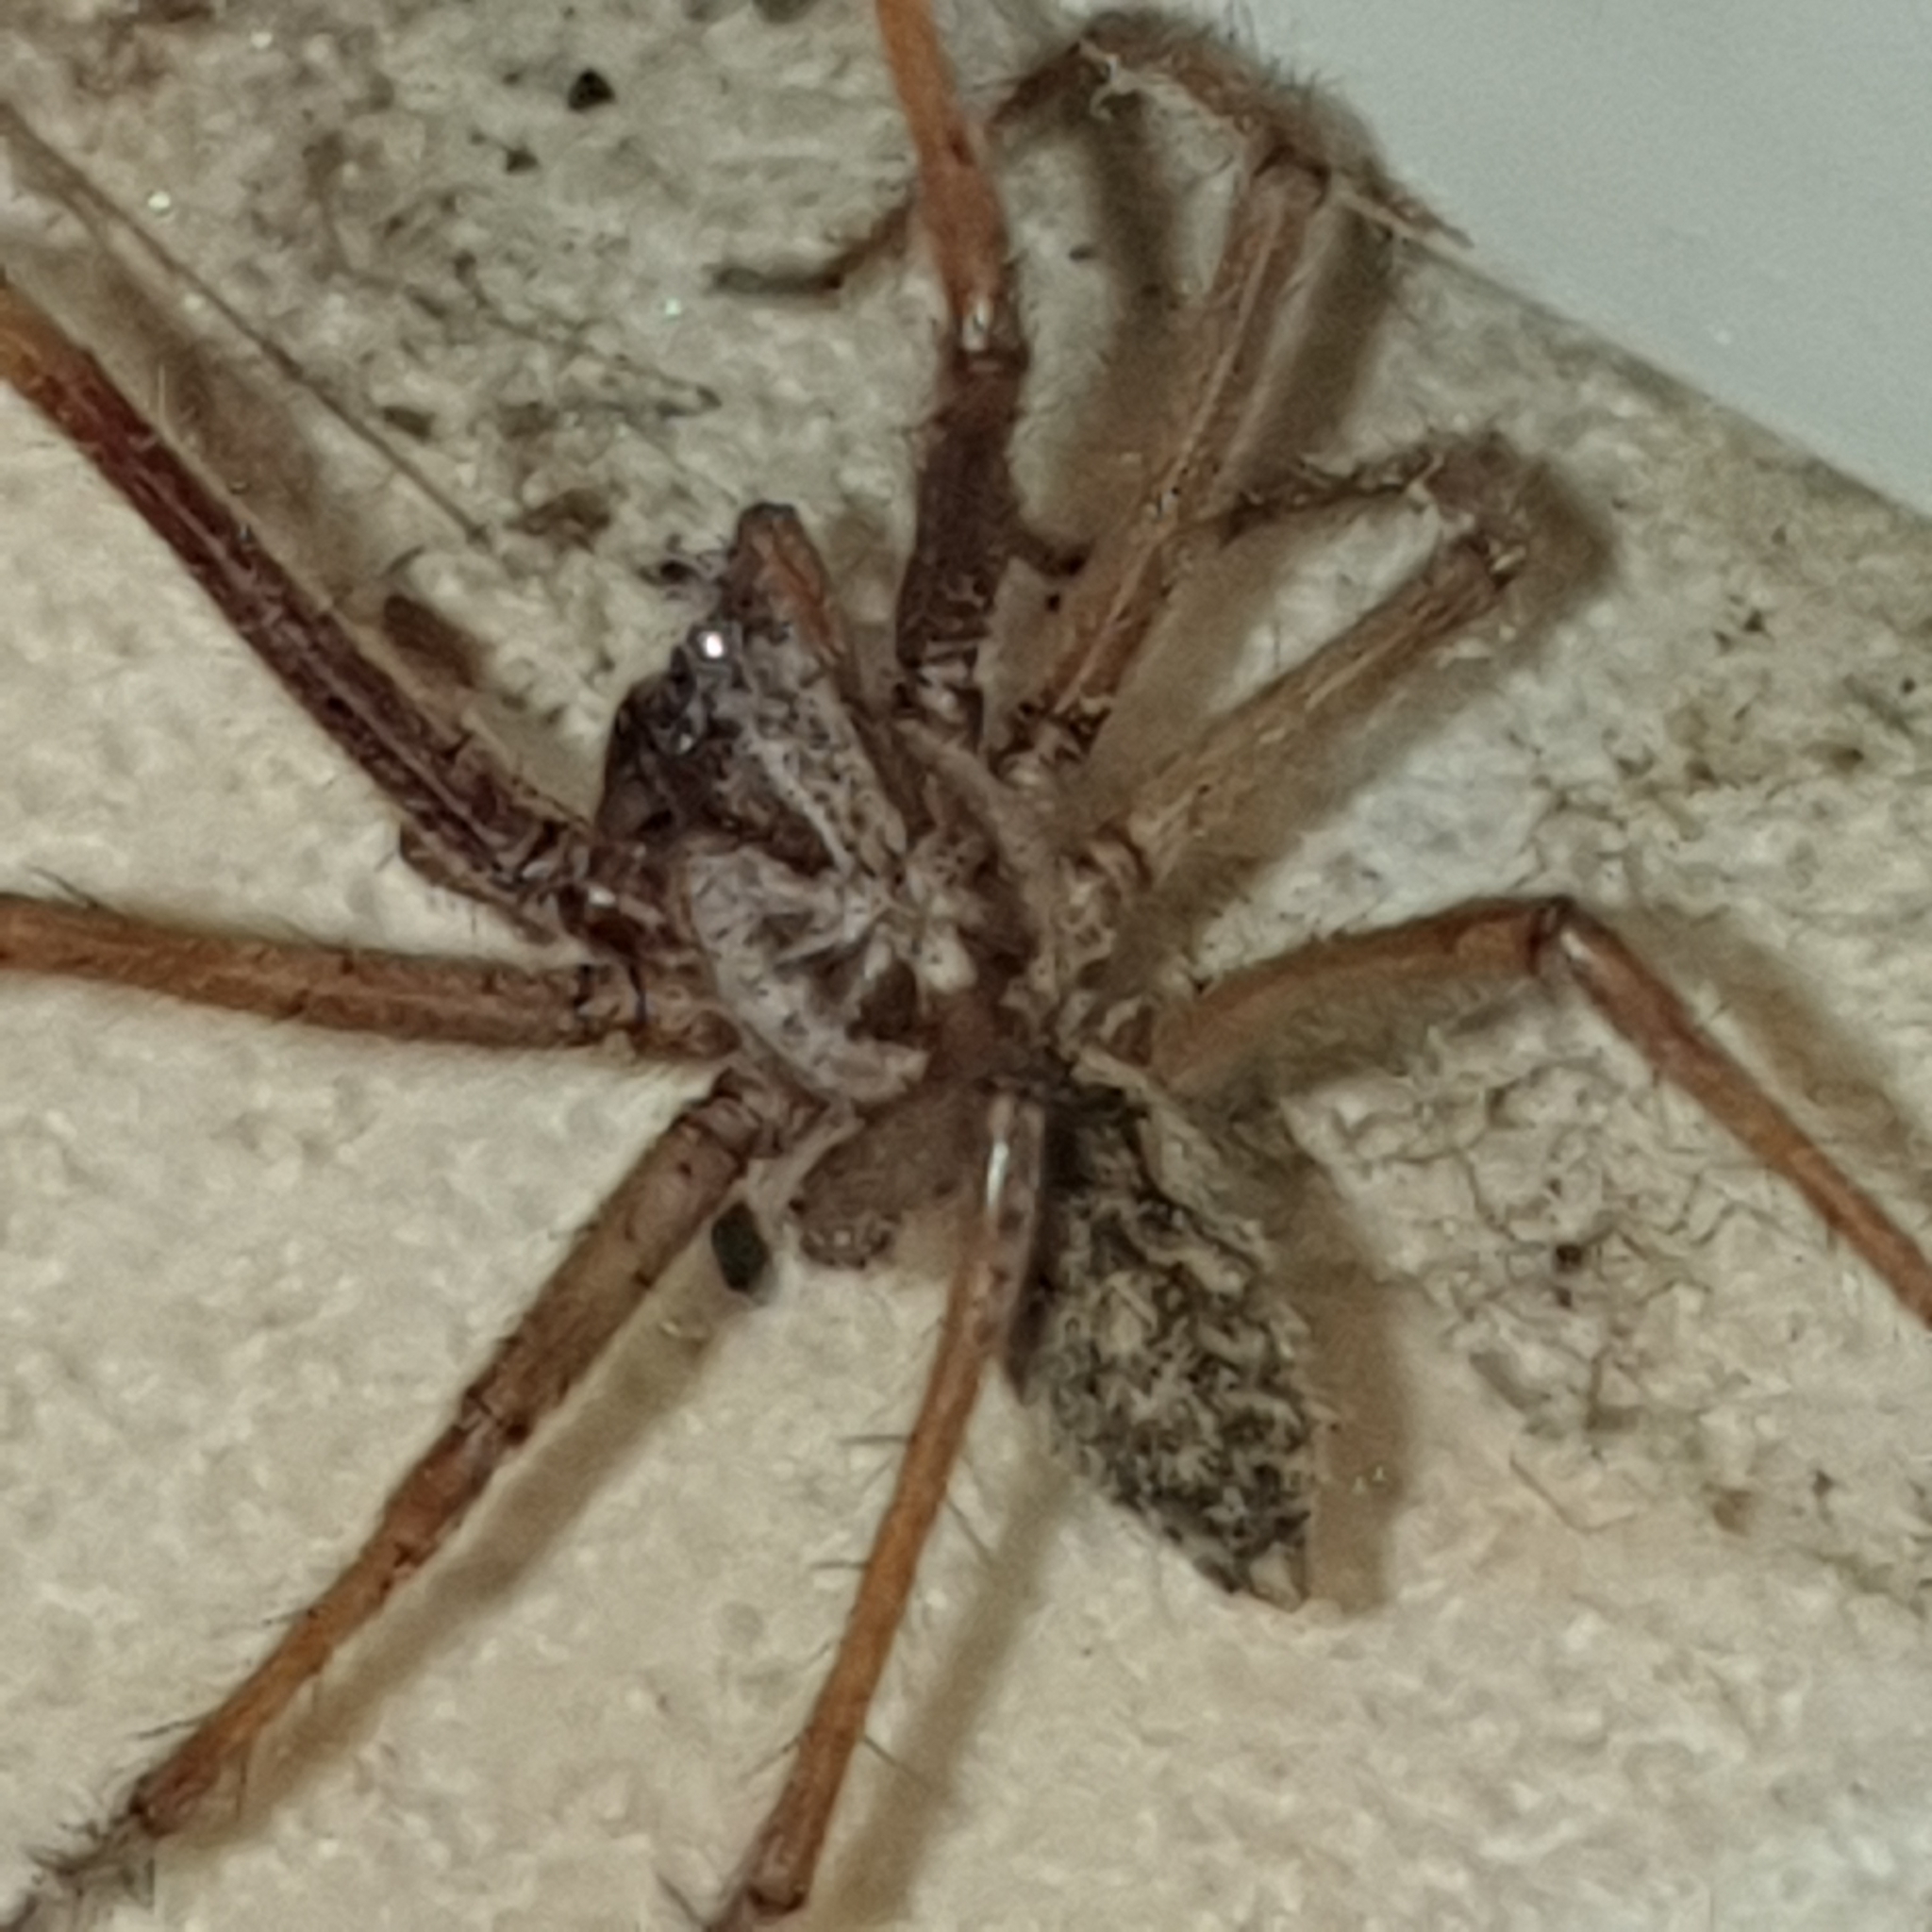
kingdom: Animalia
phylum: Arthropoda
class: Arachnida
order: Araneae
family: Agelenidae
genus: Eratigena
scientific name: Eratigena atrica
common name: Giant house spider
